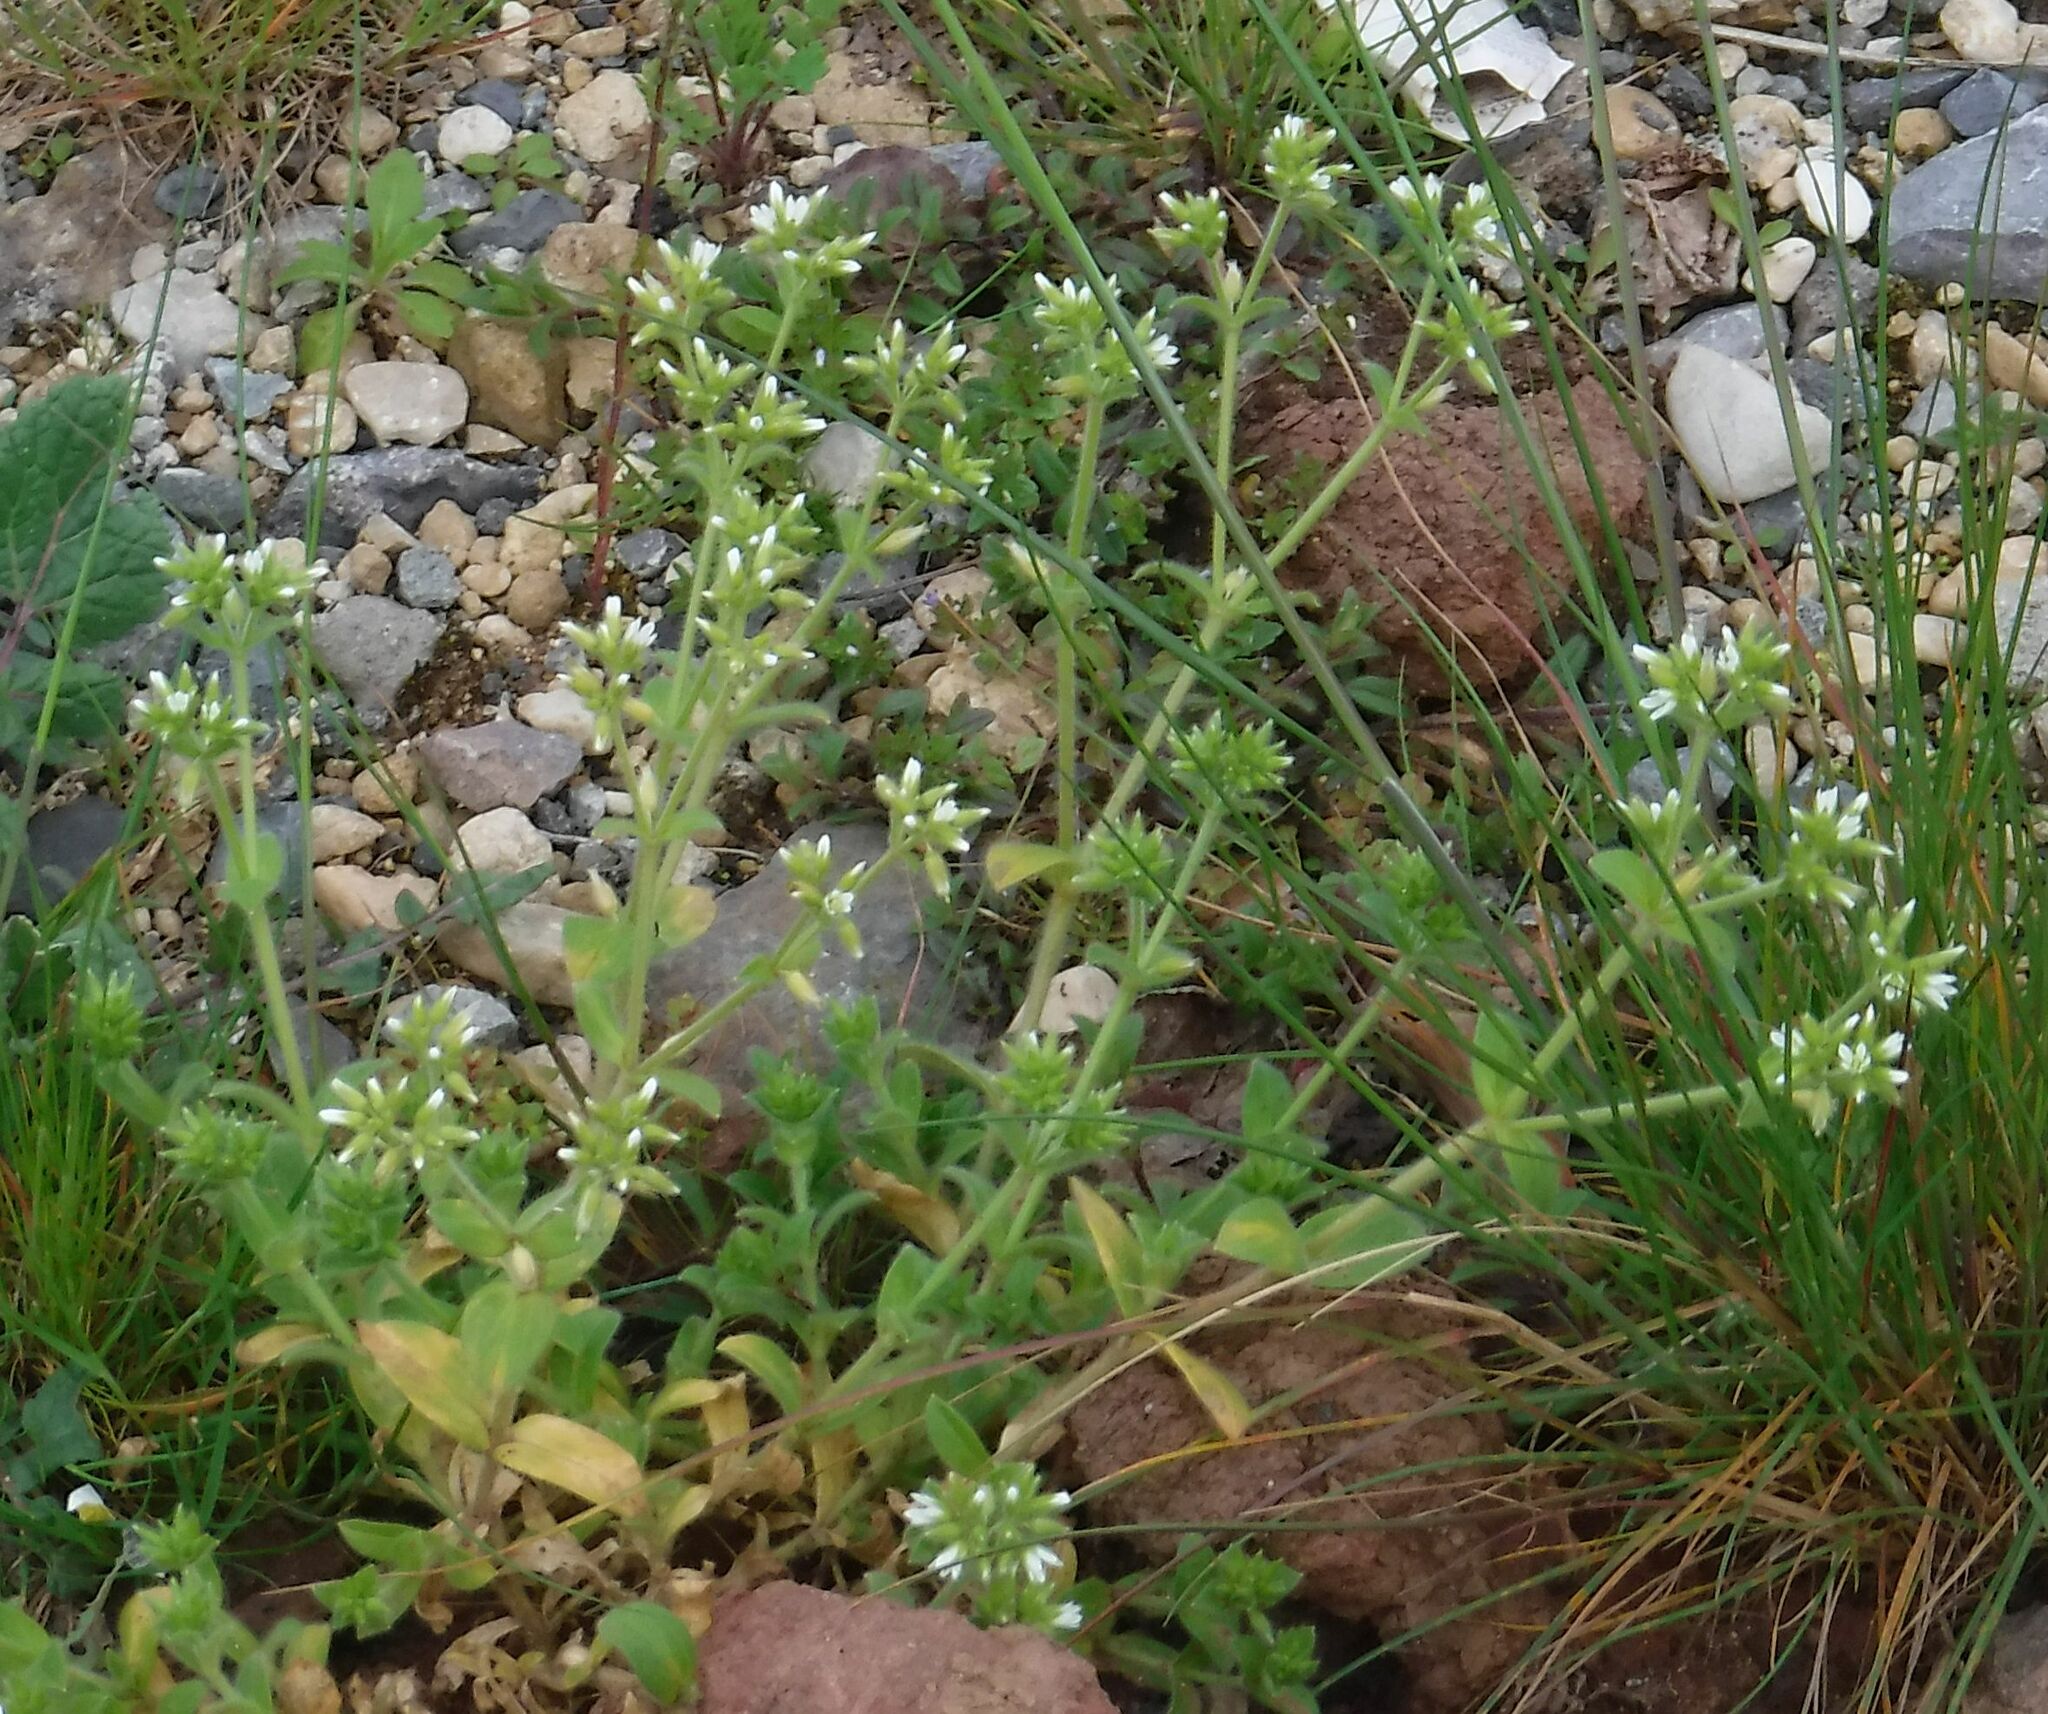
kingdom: Plantae
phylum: Tracheophyta
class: Magnoliopsida
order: Caryophyllales
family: Caryophyllaceae
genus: Cerastium
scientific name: Cerastium glomeratum
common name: Sticky chickweed
